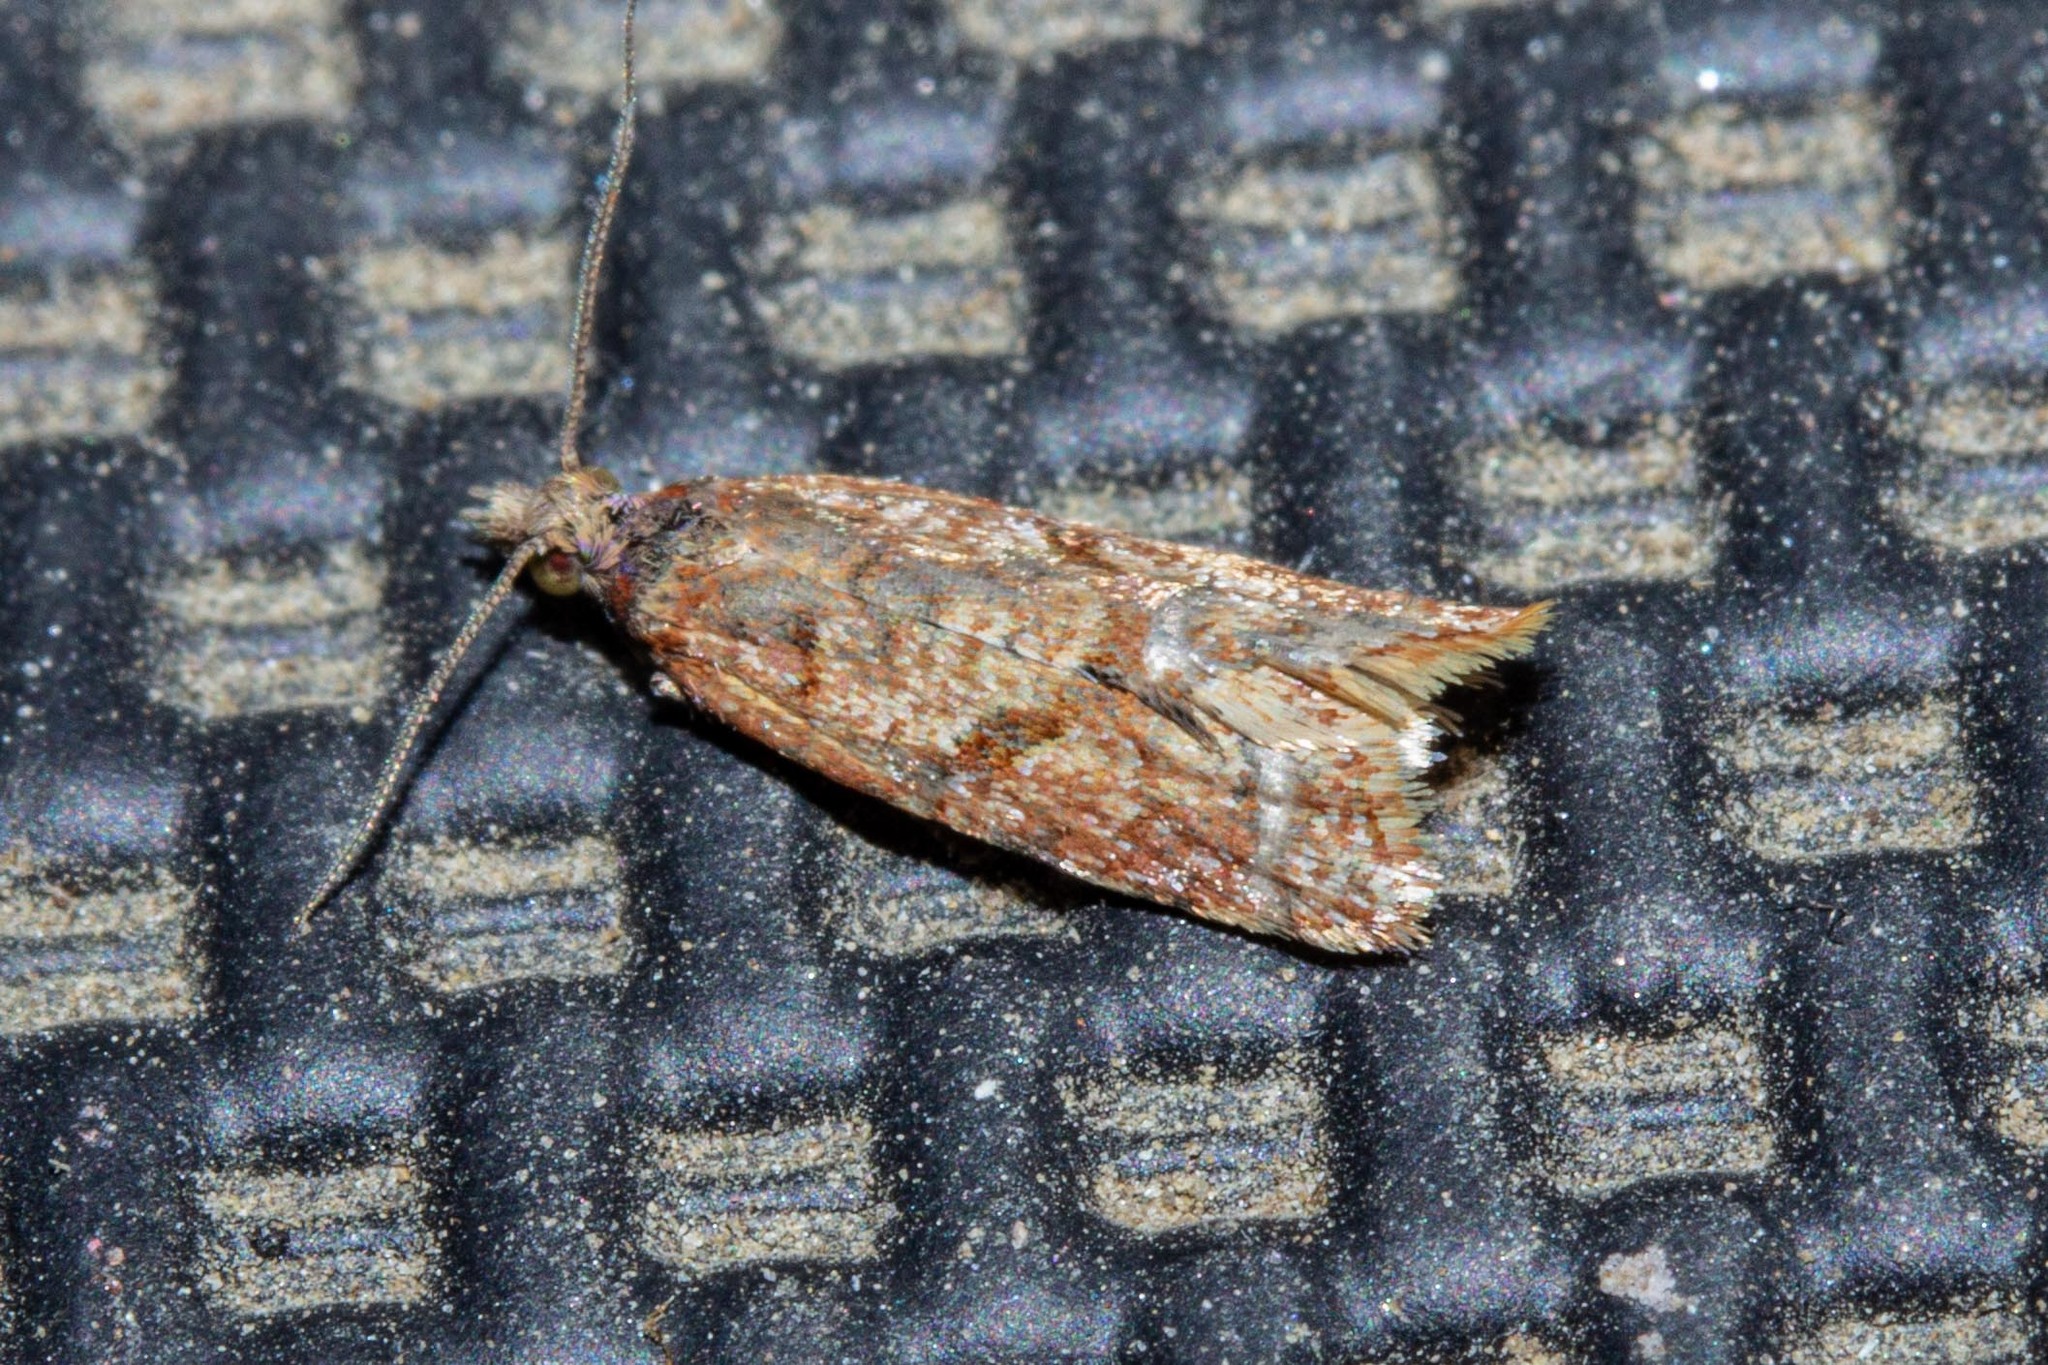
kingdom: Animalia
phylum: Arthropoda
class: Insecta
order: Lepidoptera
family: Tortricidae
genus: Capua
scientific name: Capua semiferana
